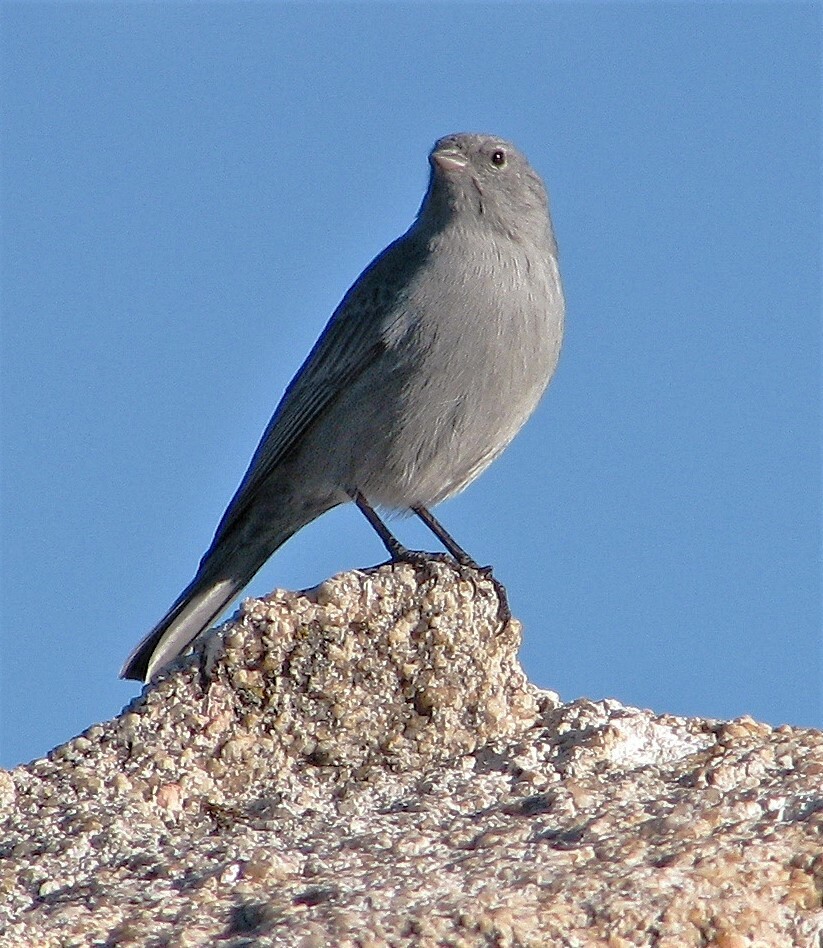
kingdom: Animalia
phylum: Chordata
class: Aves
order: Passeriformes
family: Thraupidae
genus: Geospizopsis
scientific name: Geospizopsis unicolor
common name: Plumbeous sierra-finch
